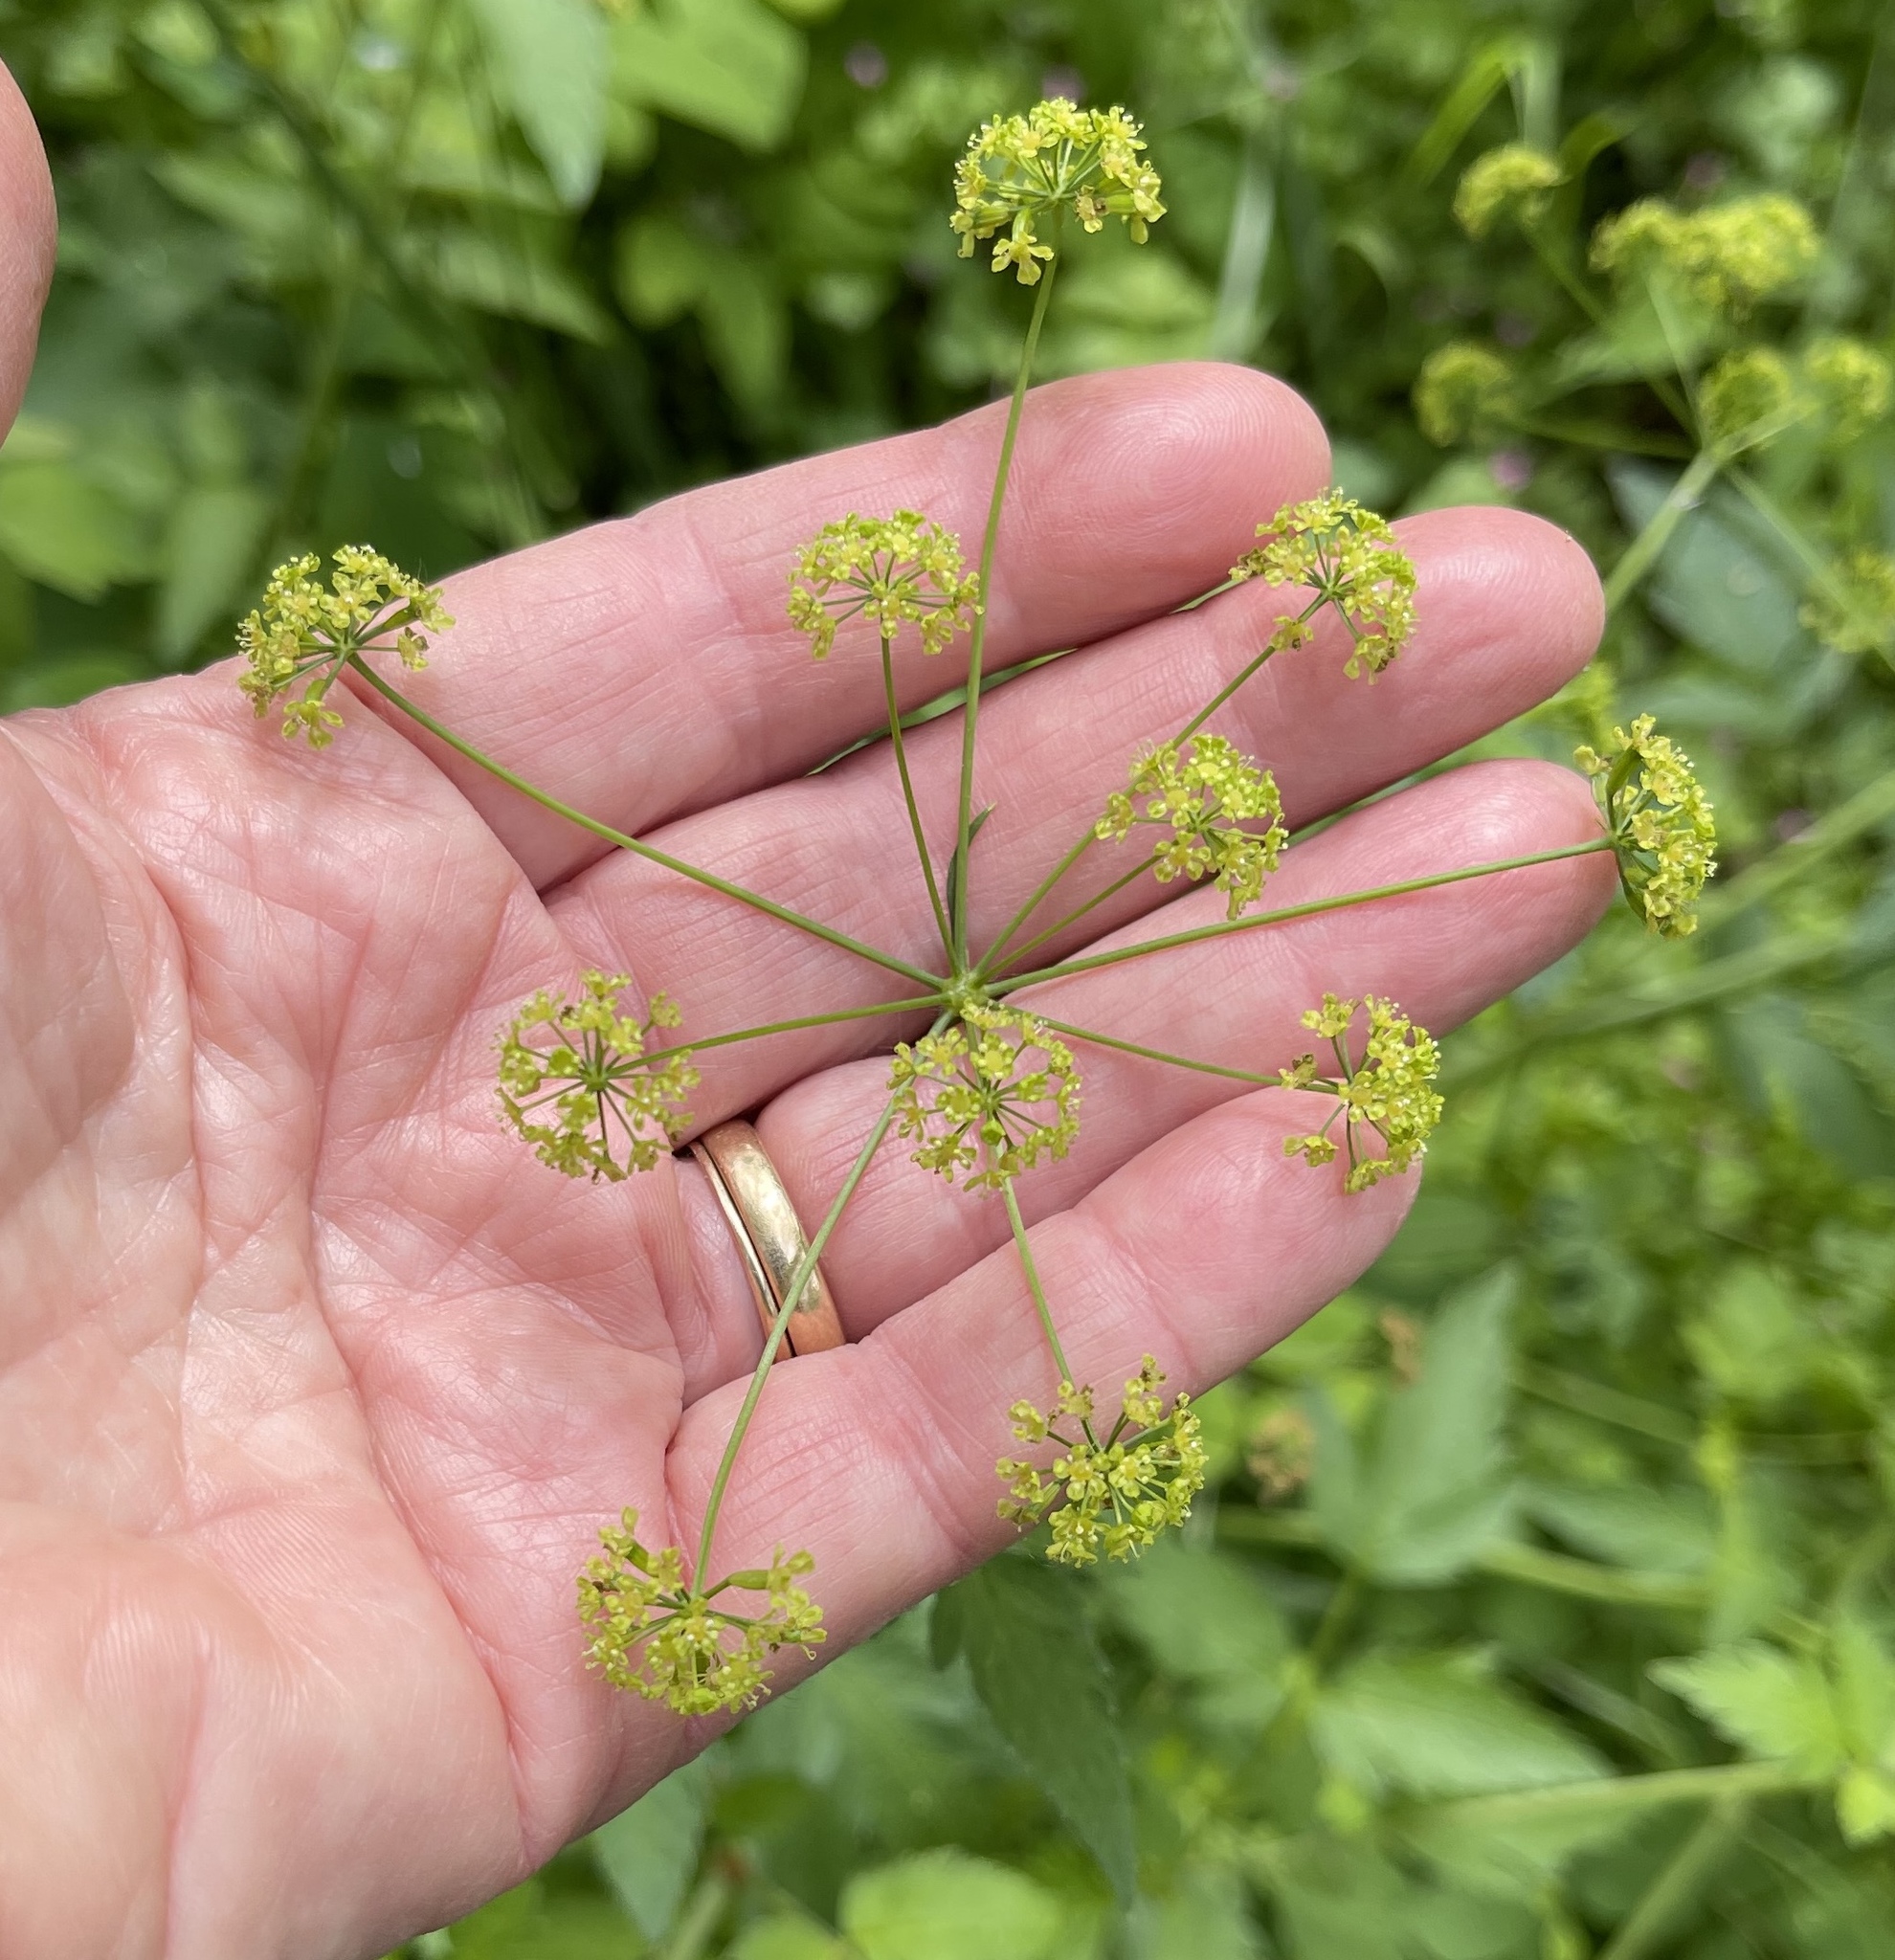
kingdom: Plantae
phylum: Tracheophyta
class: Magnoliopsida
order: Apiales
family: Apiaceae
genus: Osmorhiza
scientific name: Osmorhiza occidentalis
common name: Western sweet cicely
